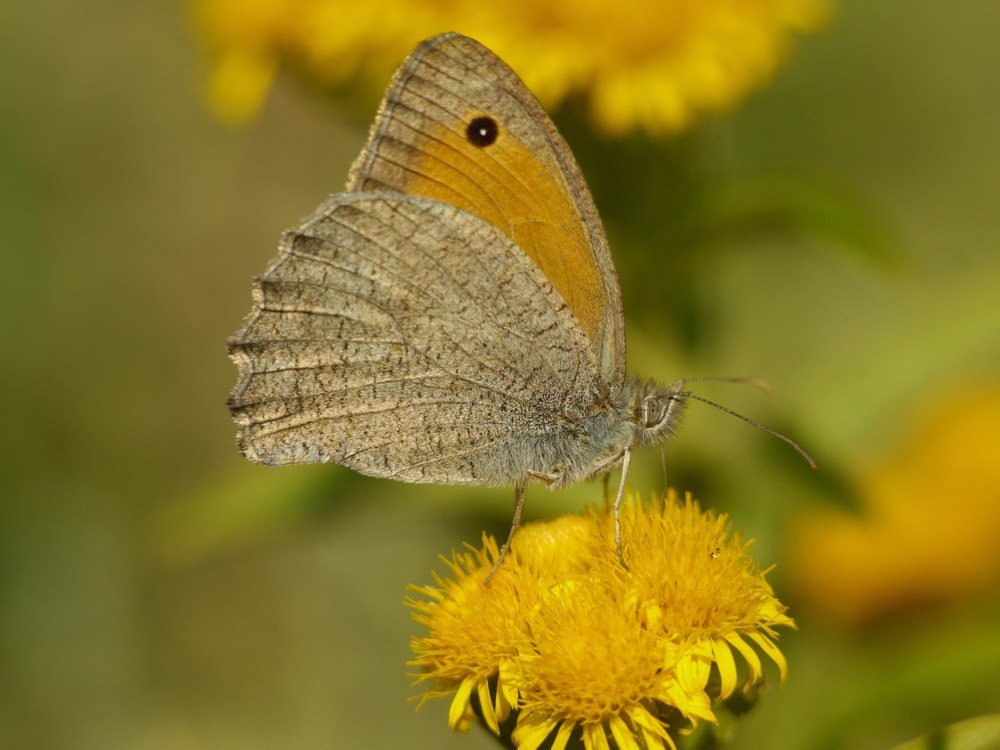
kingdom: Animalia
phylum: Arthropoda
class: Insecta
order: Lepidoptera
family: Nymphalidae
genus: Hyponephele
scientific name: Hyponephele lupinus
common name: Oriental meadow brown
